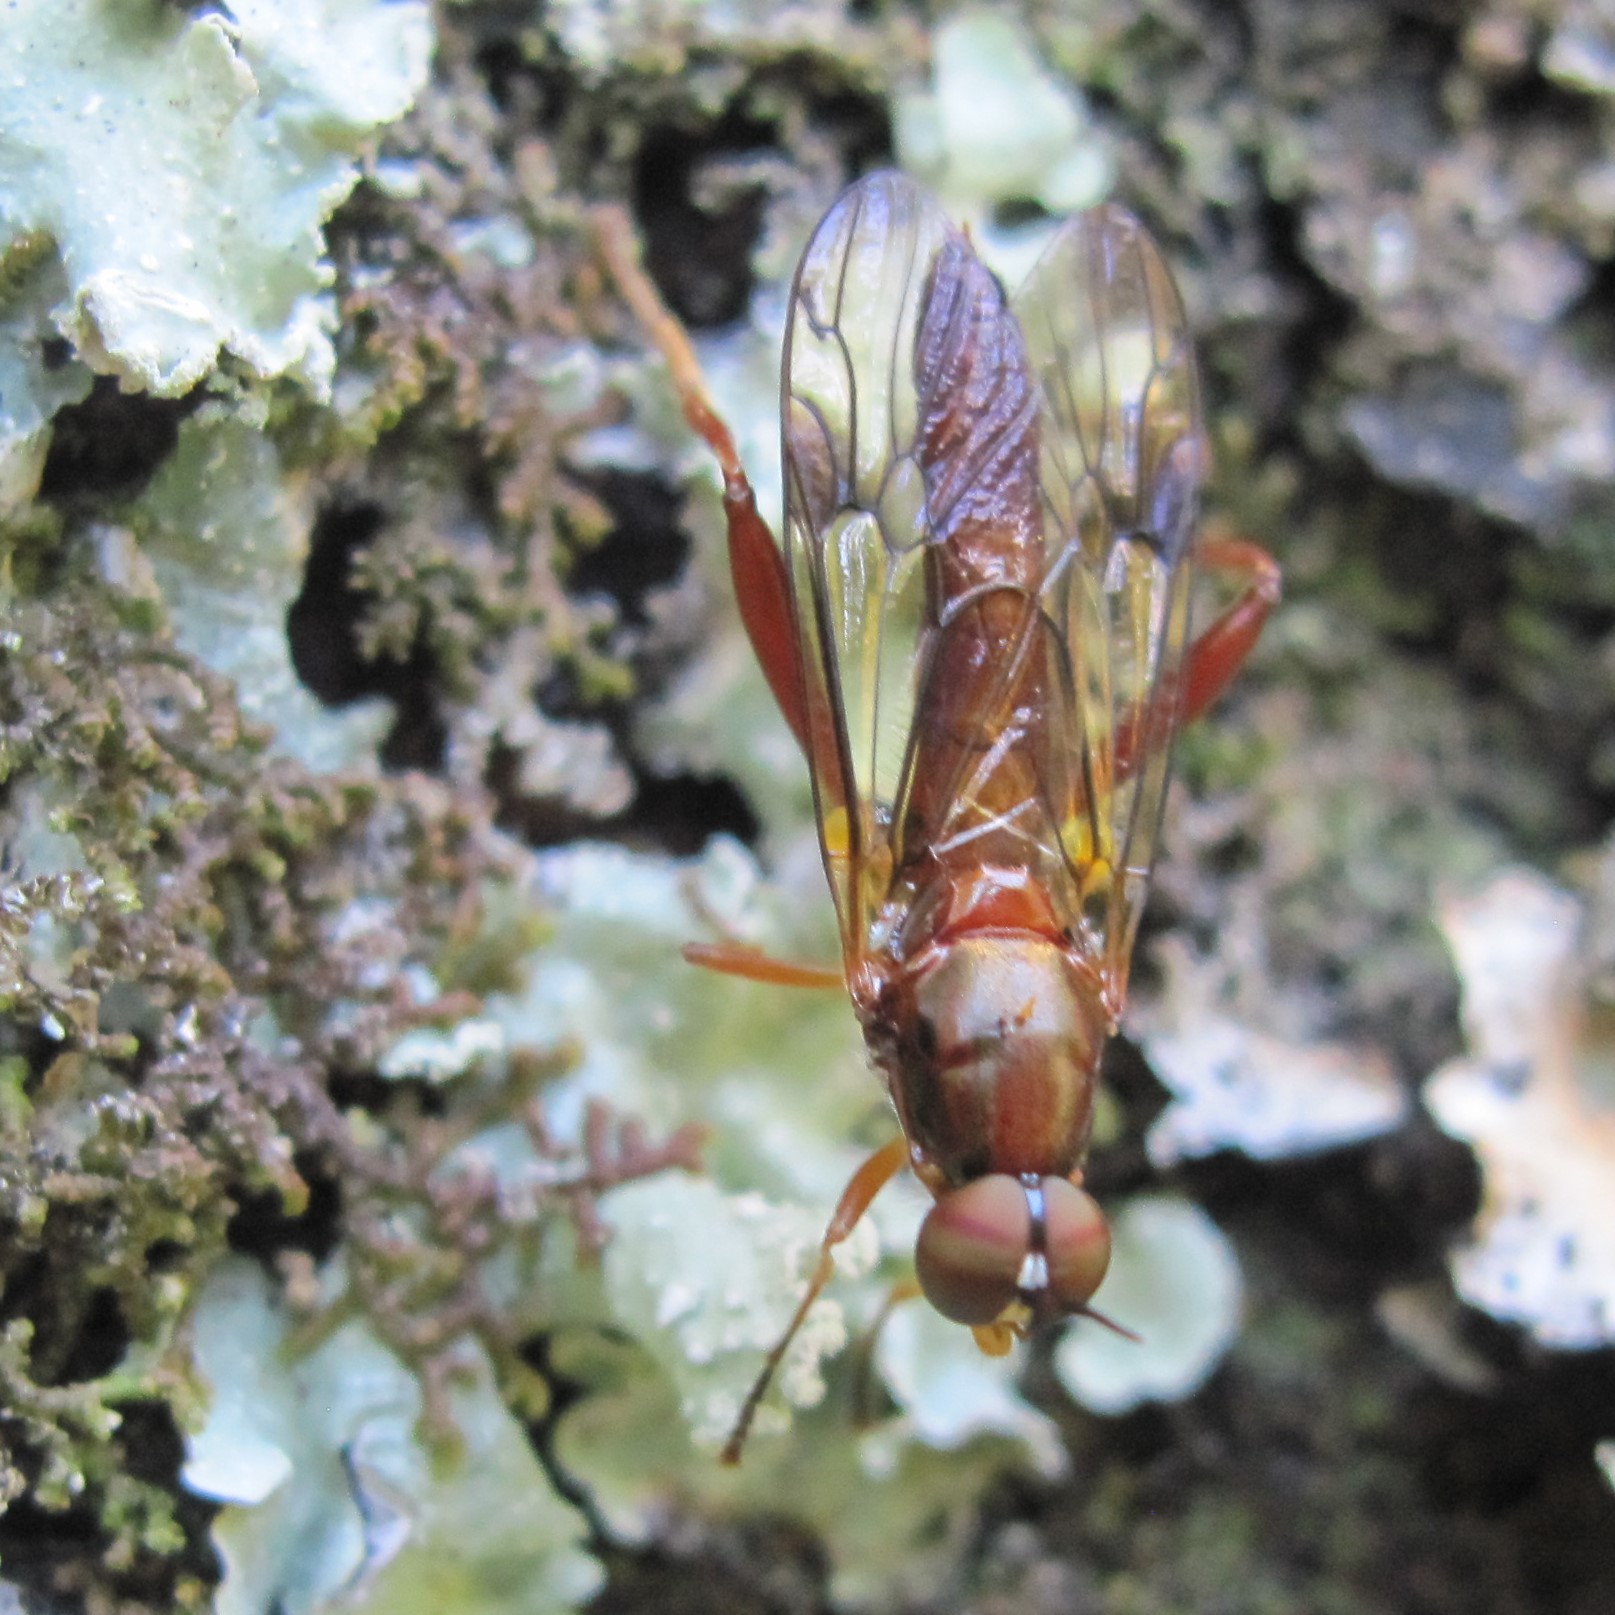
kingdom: Animalia
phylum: Arthropoda
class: Insecta
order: Diptera
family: Stratiomyidae
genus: Benhamyia
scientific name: Benhamyia straznitzkii
